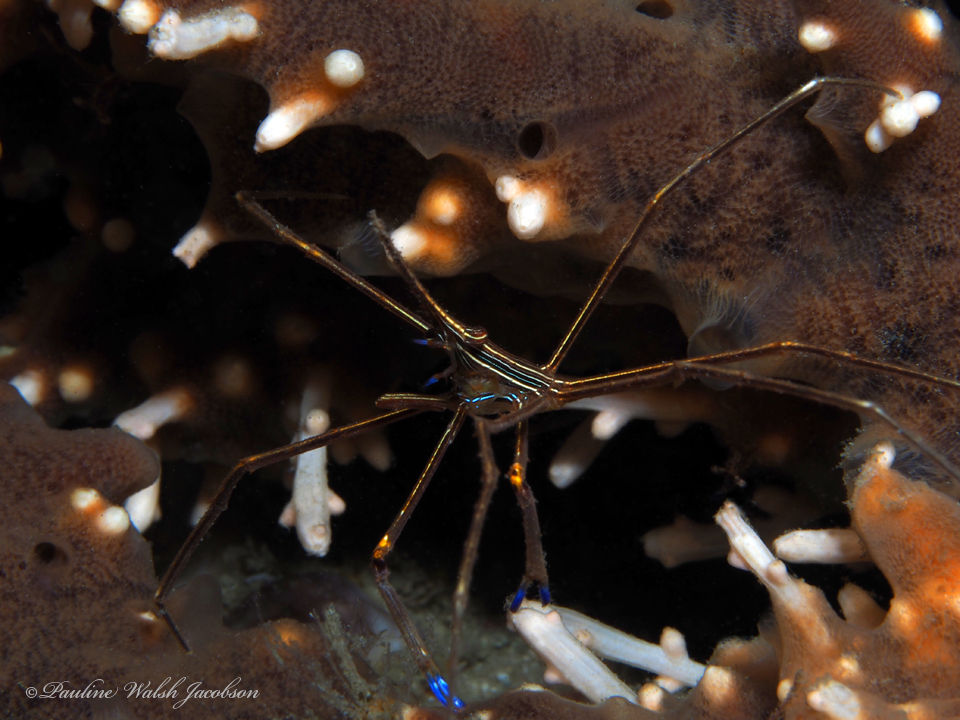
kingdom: Animalia
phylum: Arthropoda
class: Malacostraca
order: Decapoda
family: Inachoididae
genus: Stenorhynchus
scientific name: Stenorhynchus seticornis
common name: Arrow crab
